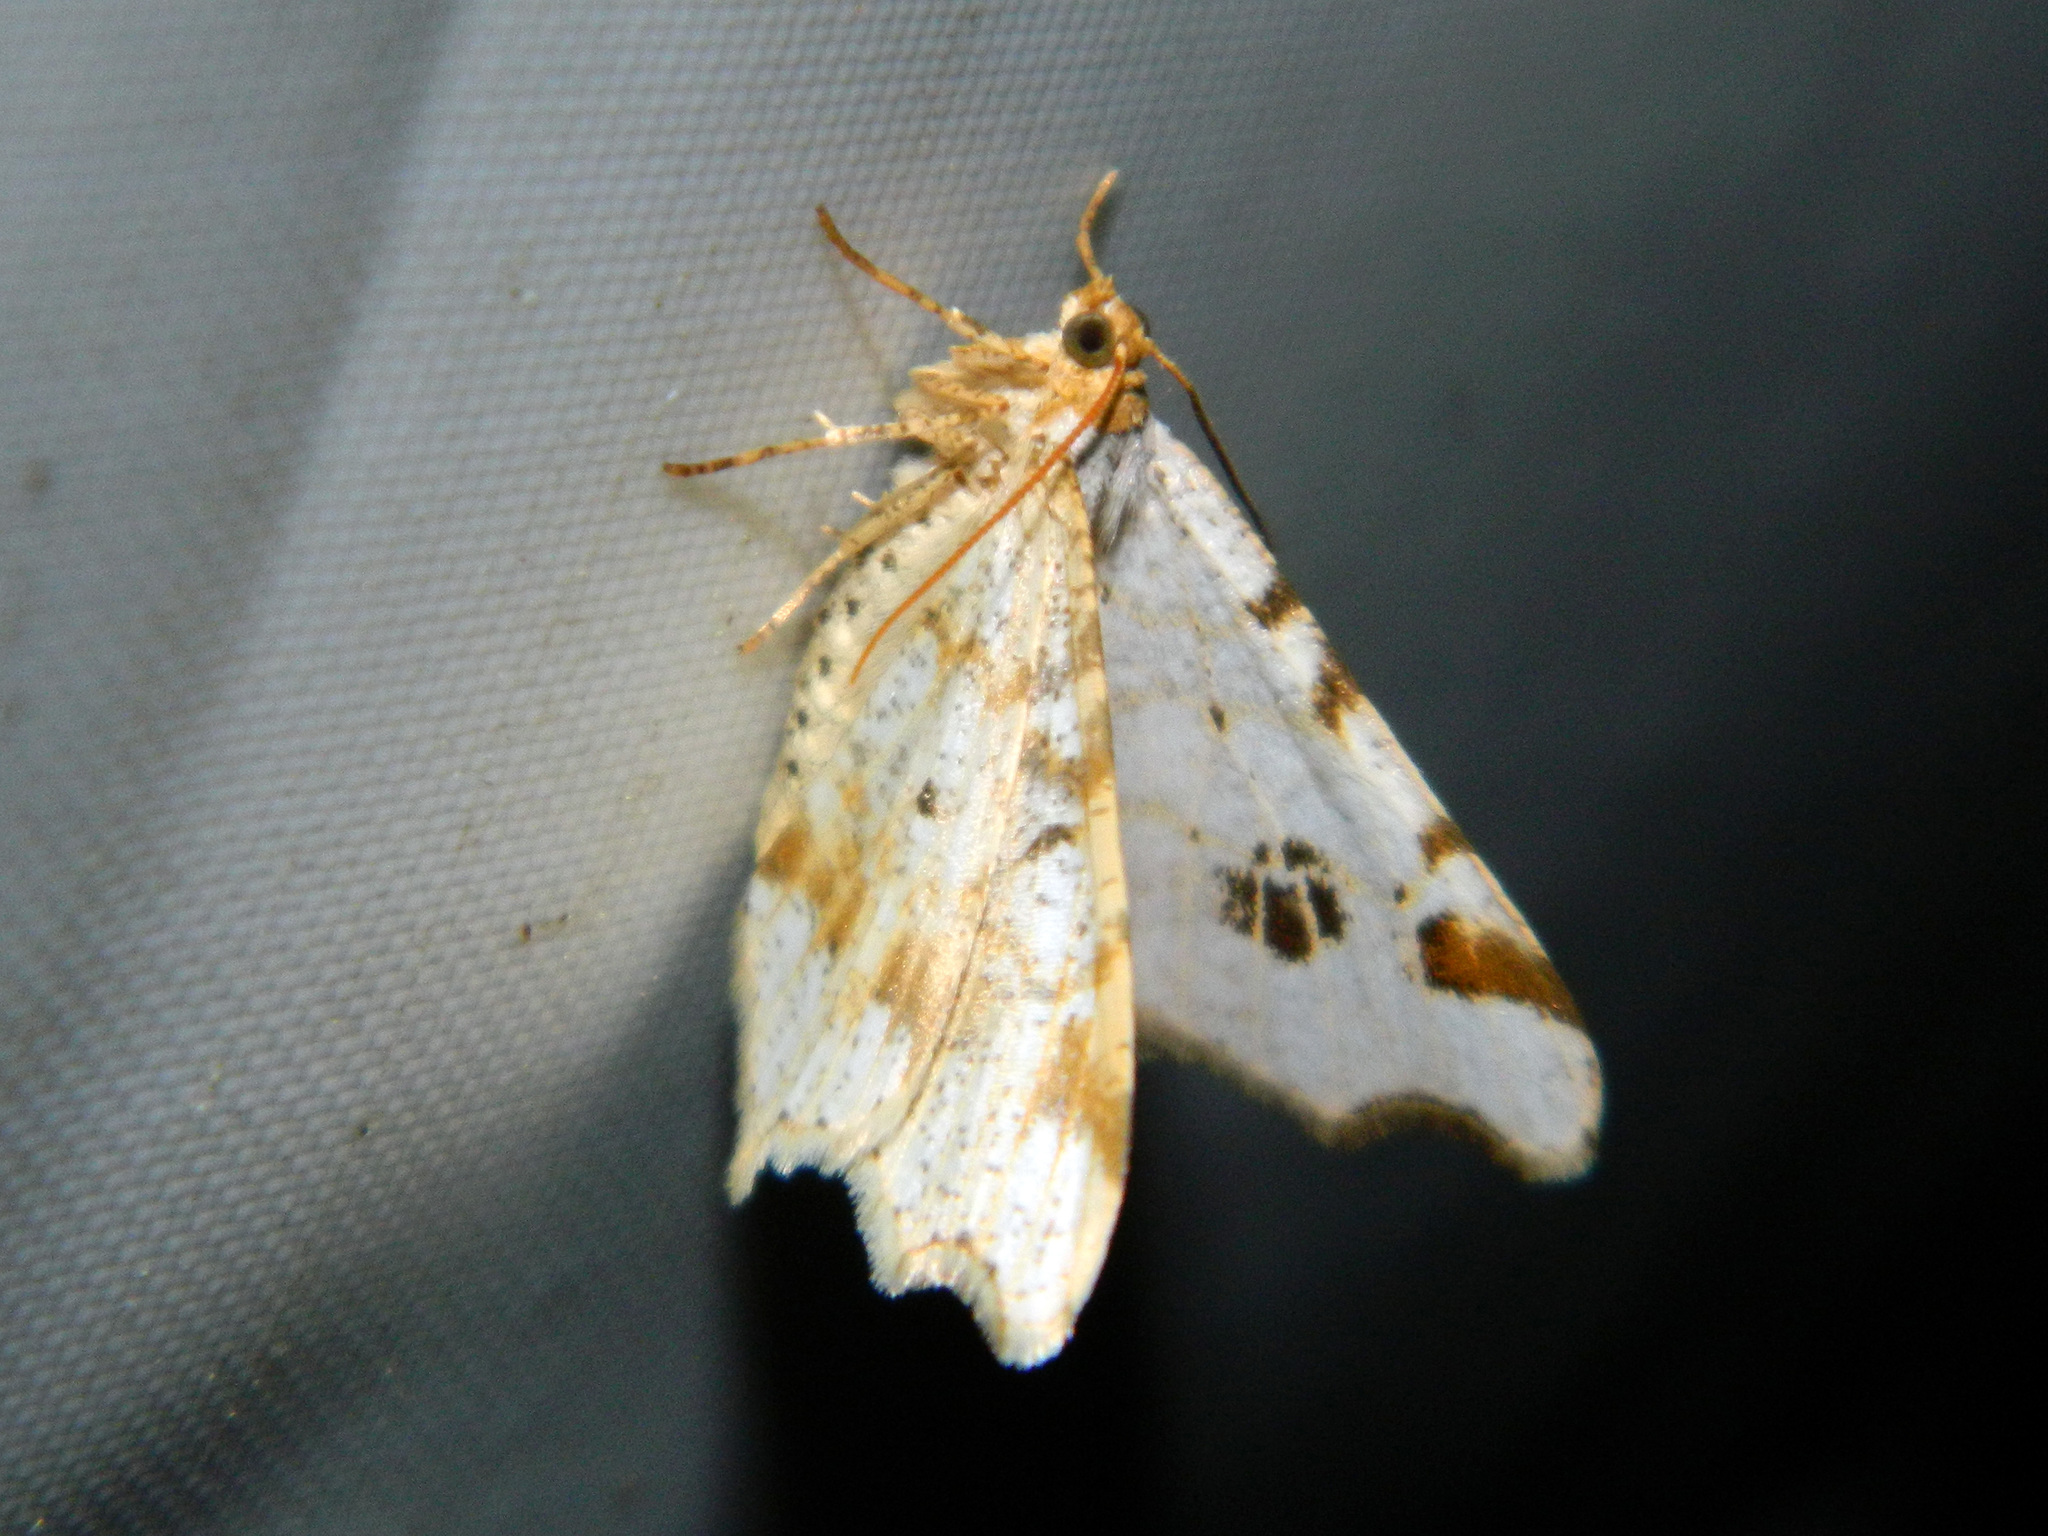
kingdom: Animalia
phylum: Arthropoda
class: Insecta
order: Lepidoptera
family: Geometridae
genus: Macaria
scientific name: Macaria ulsterata
